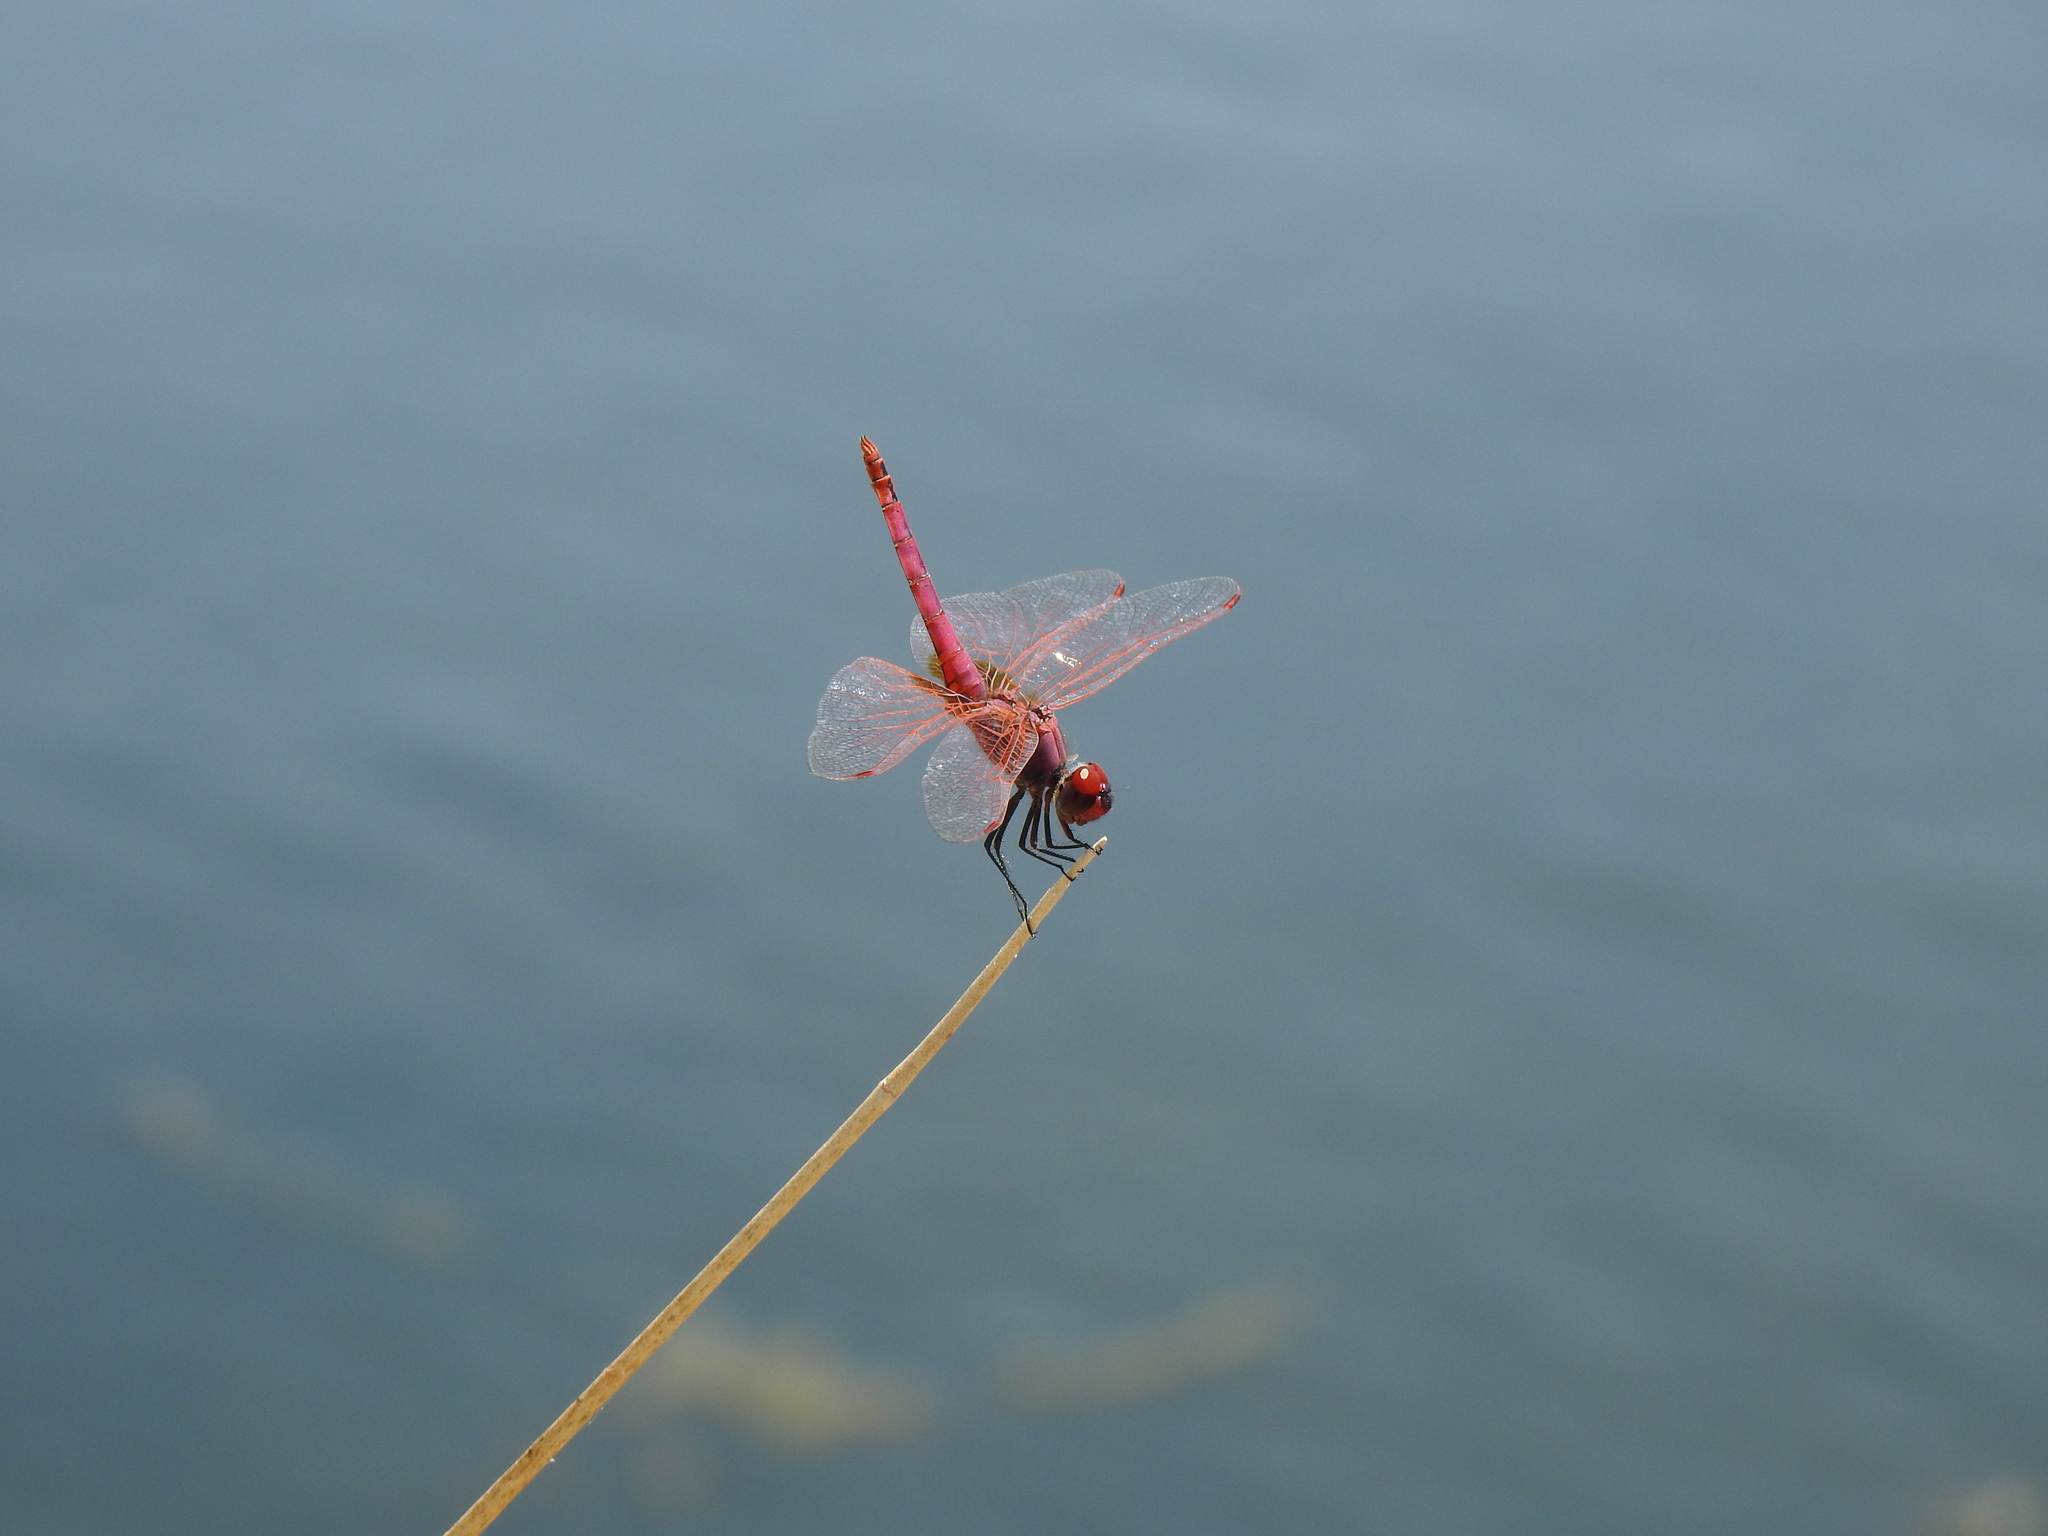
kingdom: Animalia
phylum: Arthropoda
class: Insecta
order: Odonata
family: Libellulidae
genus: Trithemis
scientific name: Trithemis annulata
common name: Violet dropwing
